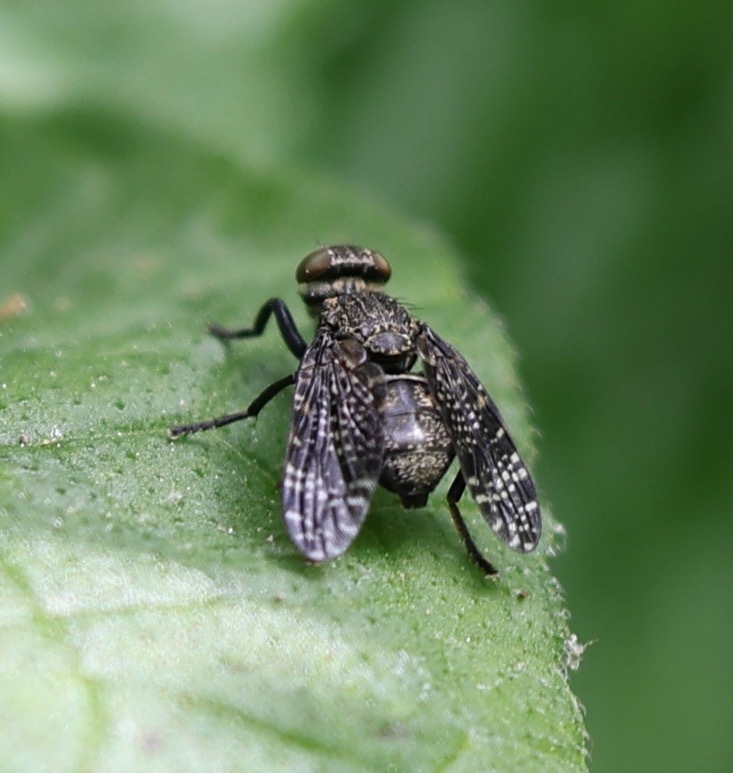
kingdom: Animalia
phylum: Arthropoda
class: Insecta
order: Diptera
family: Platystomatidae
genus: Platystoma
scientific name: Platystoma seminationis
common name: Fly
